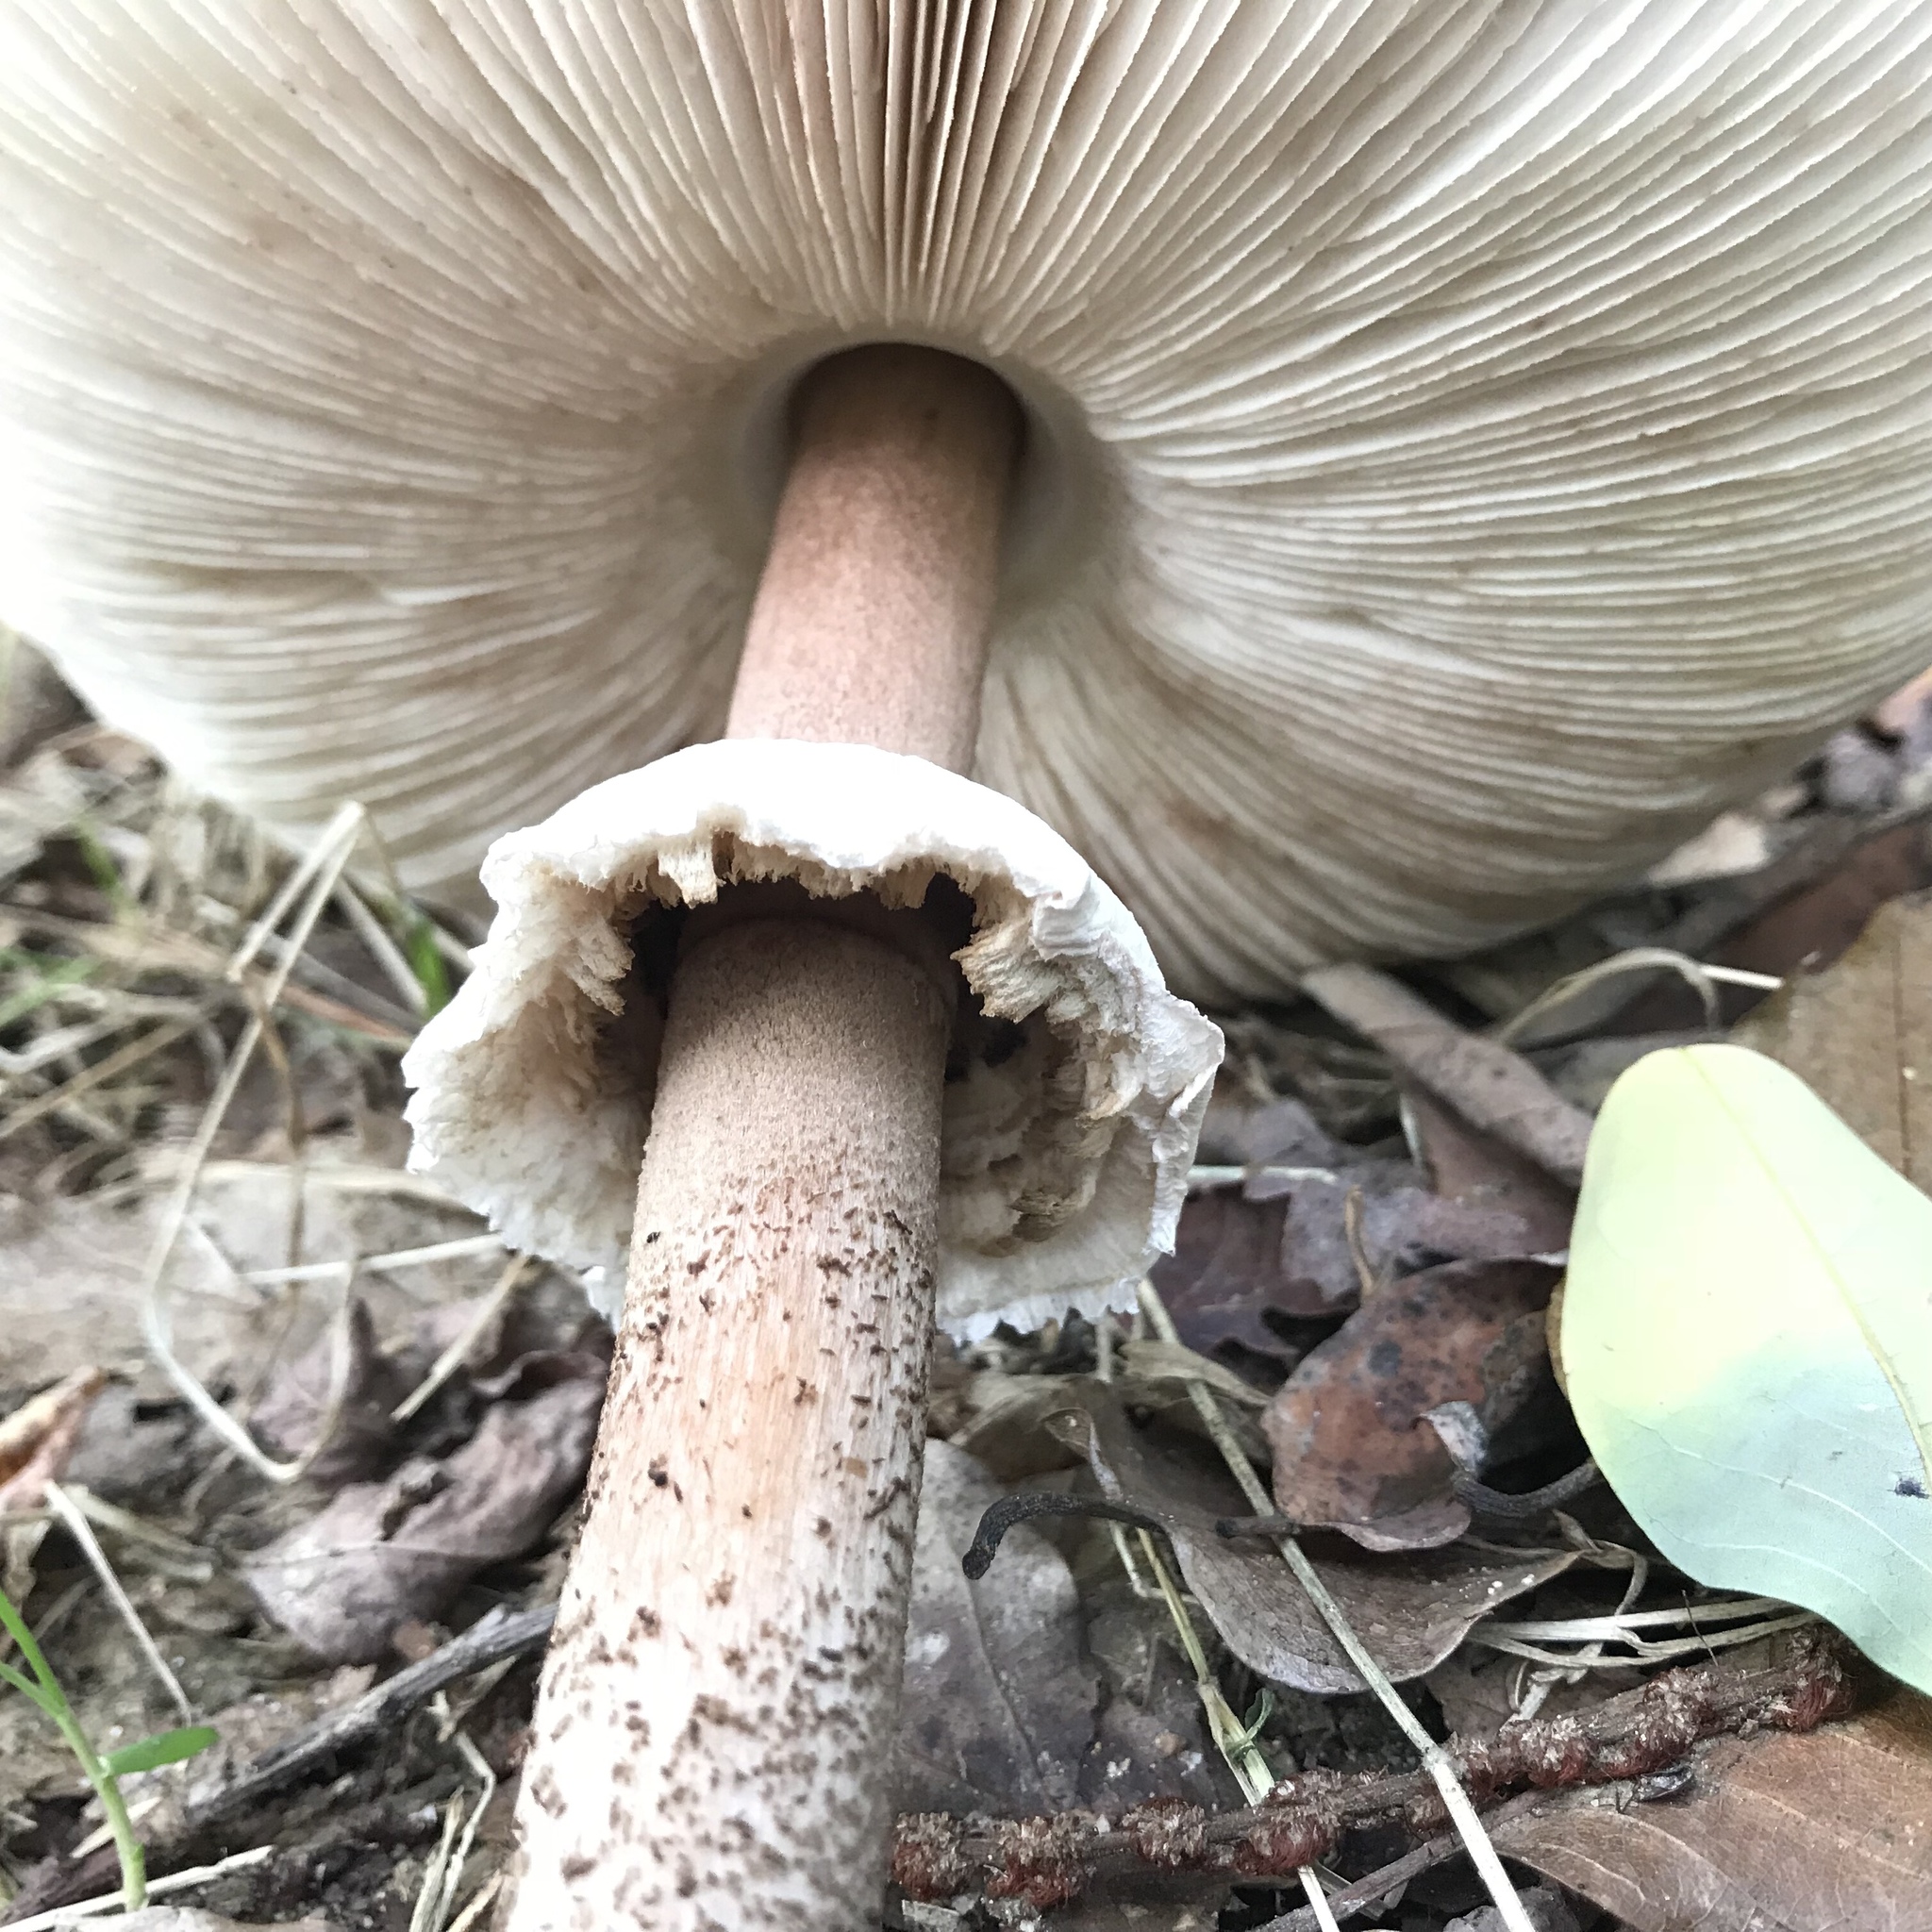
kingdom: Fungi
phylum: Basidiomycota
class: Agaricomycetes
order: Agaricales
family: Agaricaceae
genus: Macrolepiota
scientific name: Macrolepiota procera
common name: Parasol
